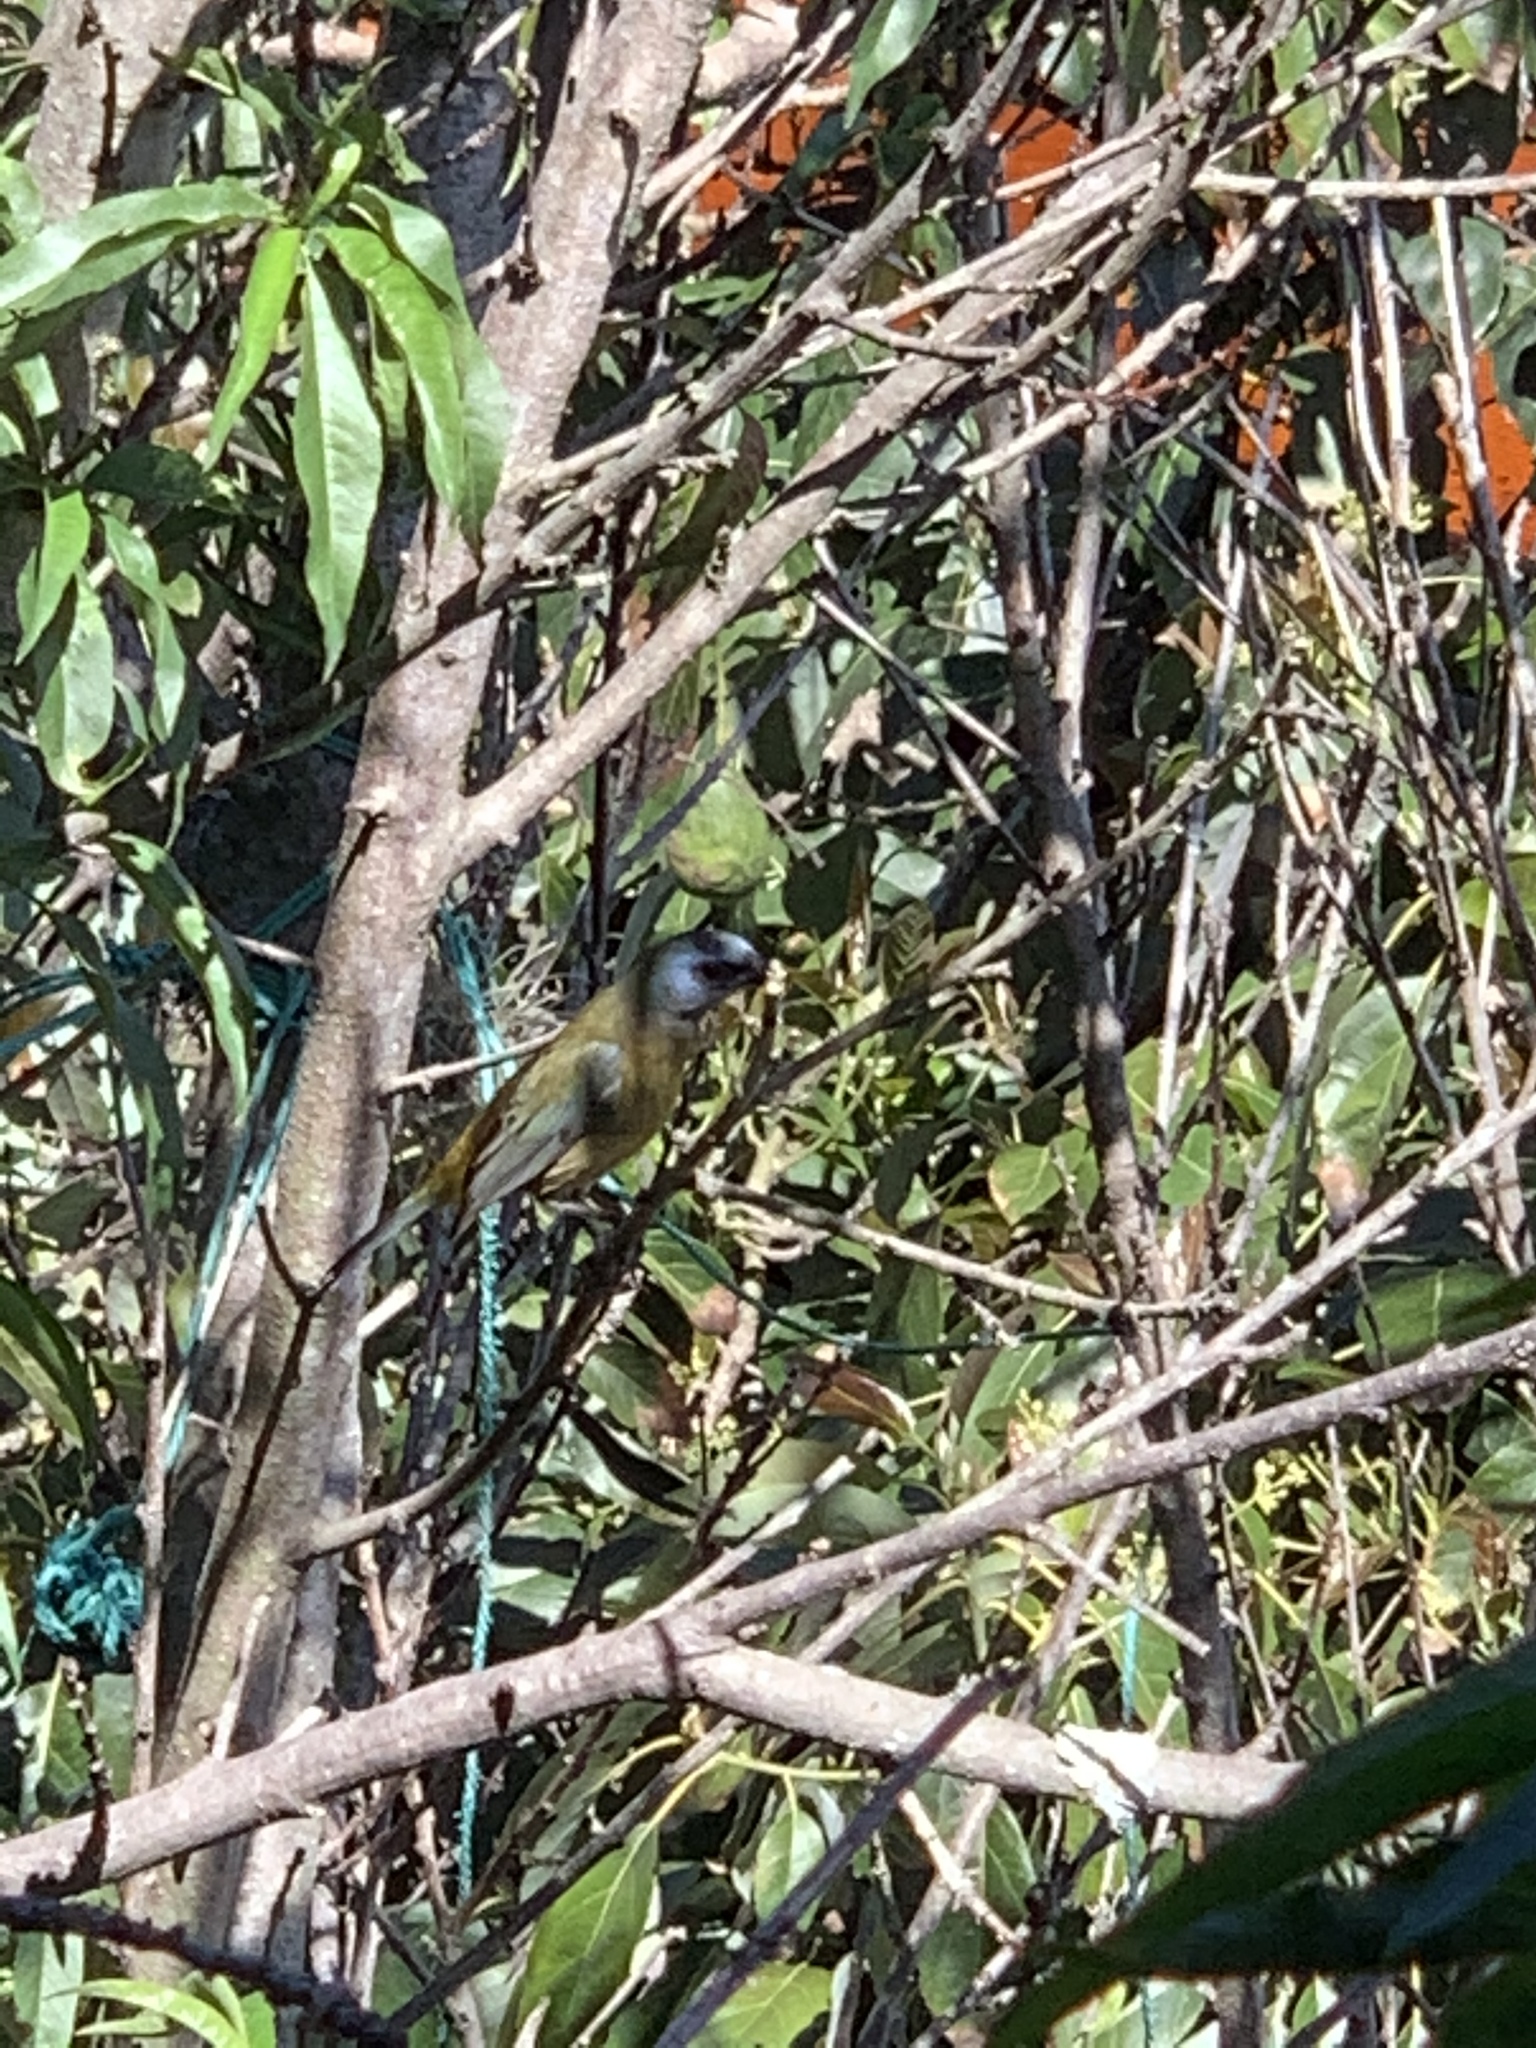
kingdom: Animalia
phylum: Chordata
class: Aves
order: Passeriformes
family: Thraupidae
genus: Rauenia
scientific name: Rauenia bonariensis
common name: Blue-and-yellow tanager
